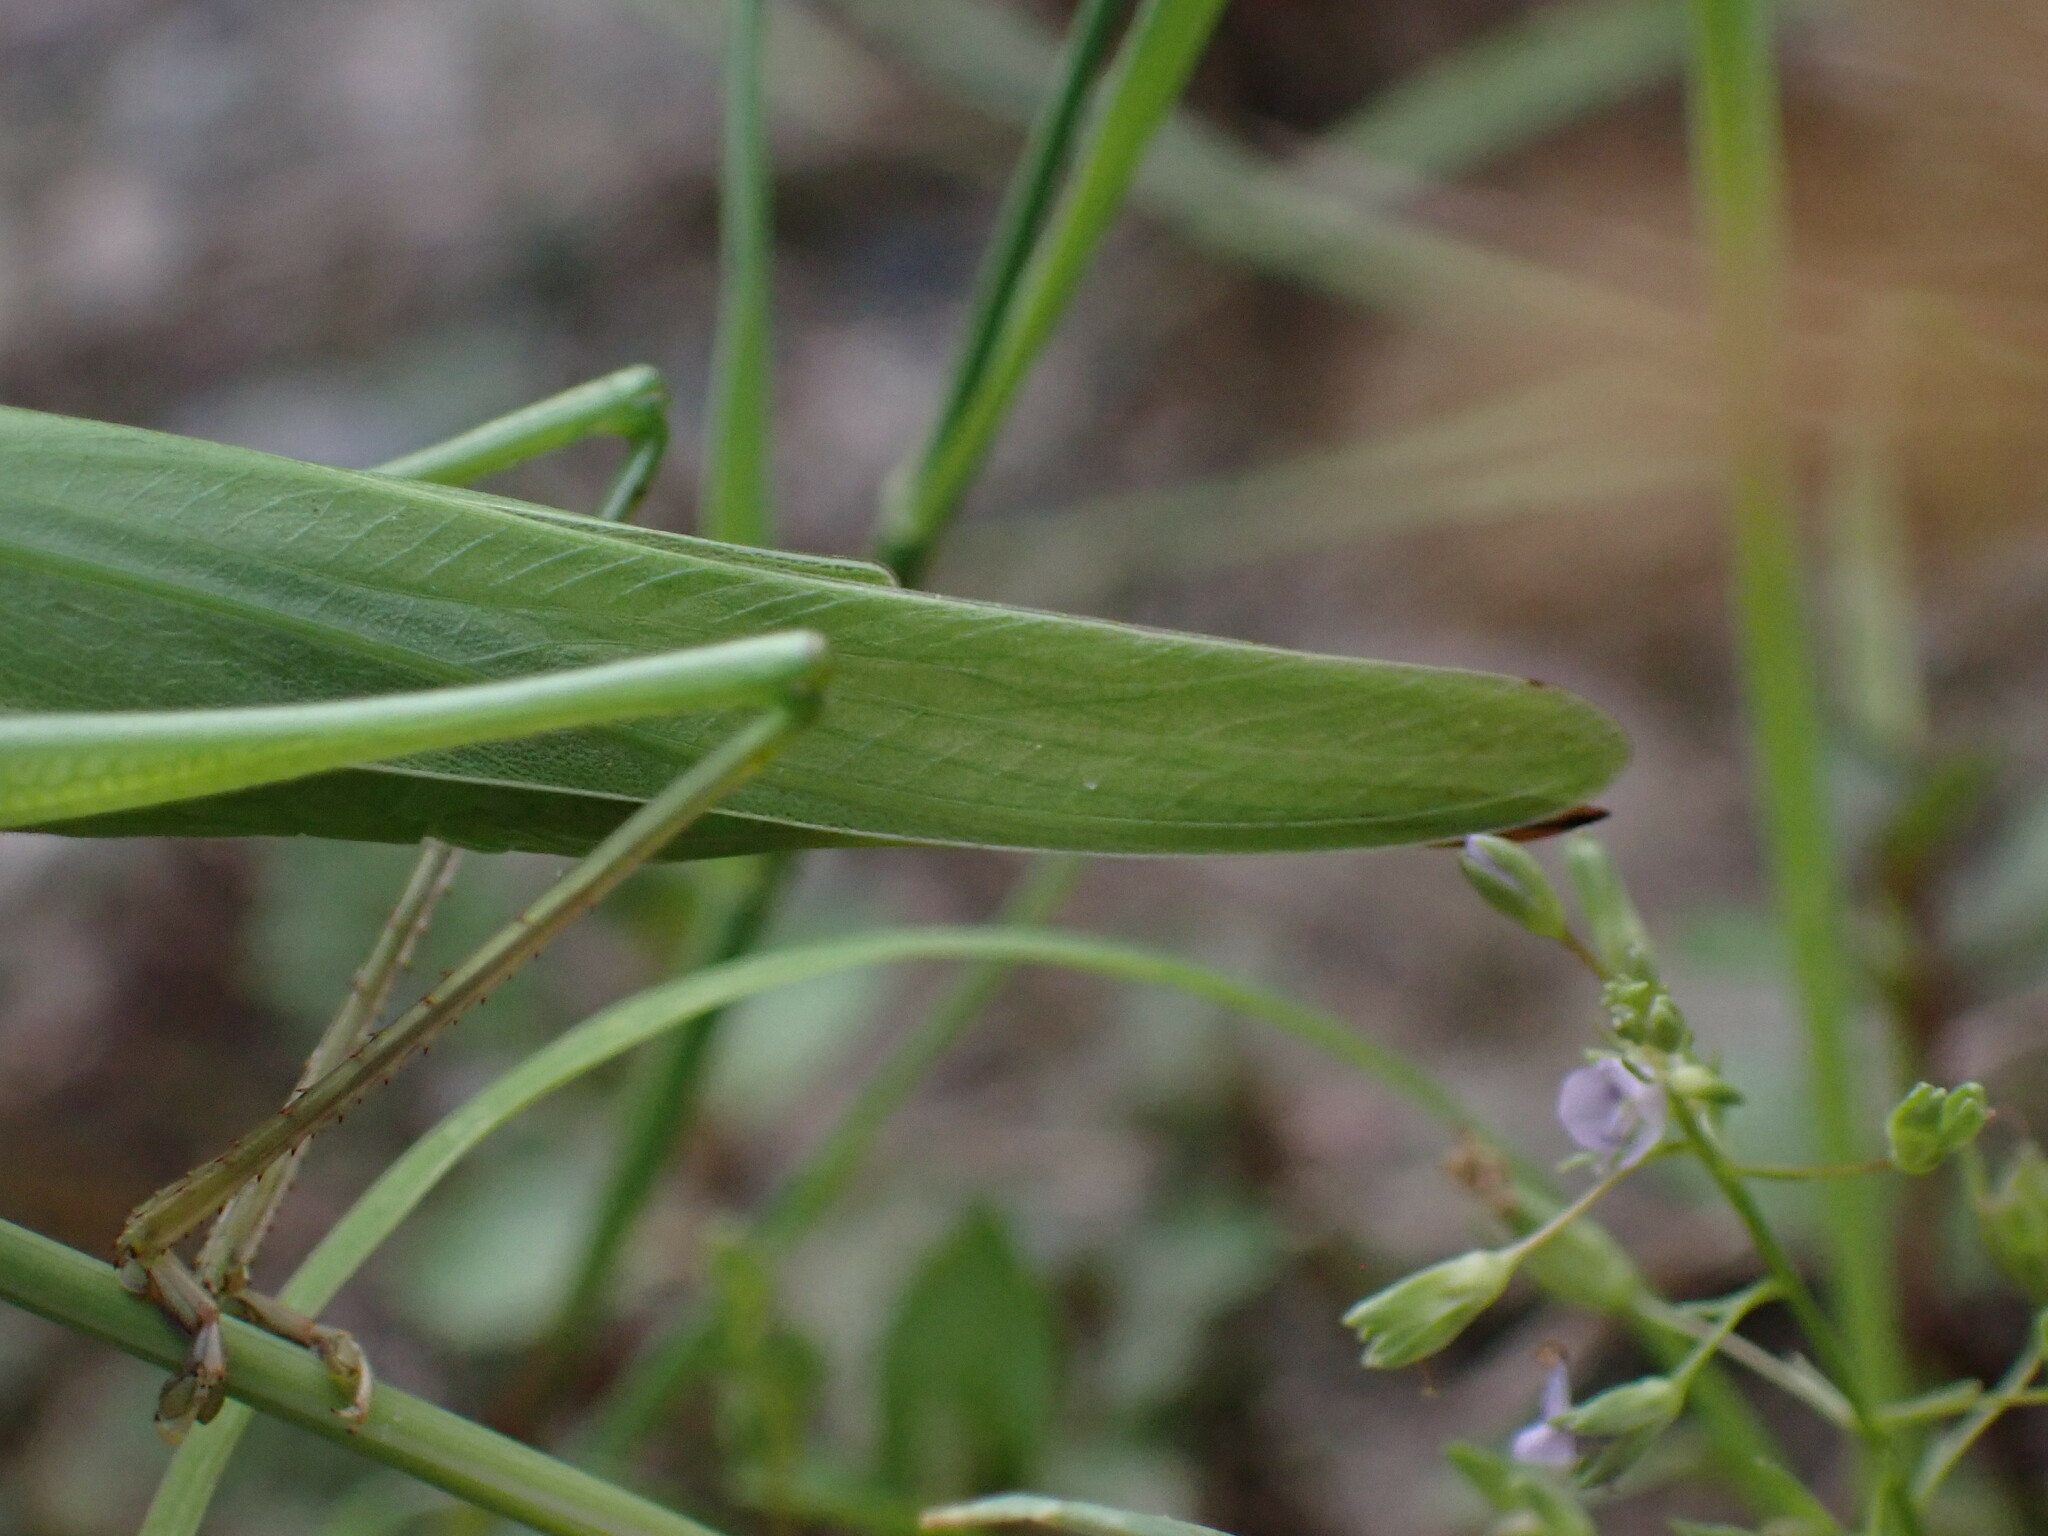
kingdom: Animalia
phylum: Arthropoda
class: Insecta
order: Orthoptera
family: Tettigoniidae
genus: Ruspolia
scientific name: Ruspolia nitidula
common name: Large conehead
